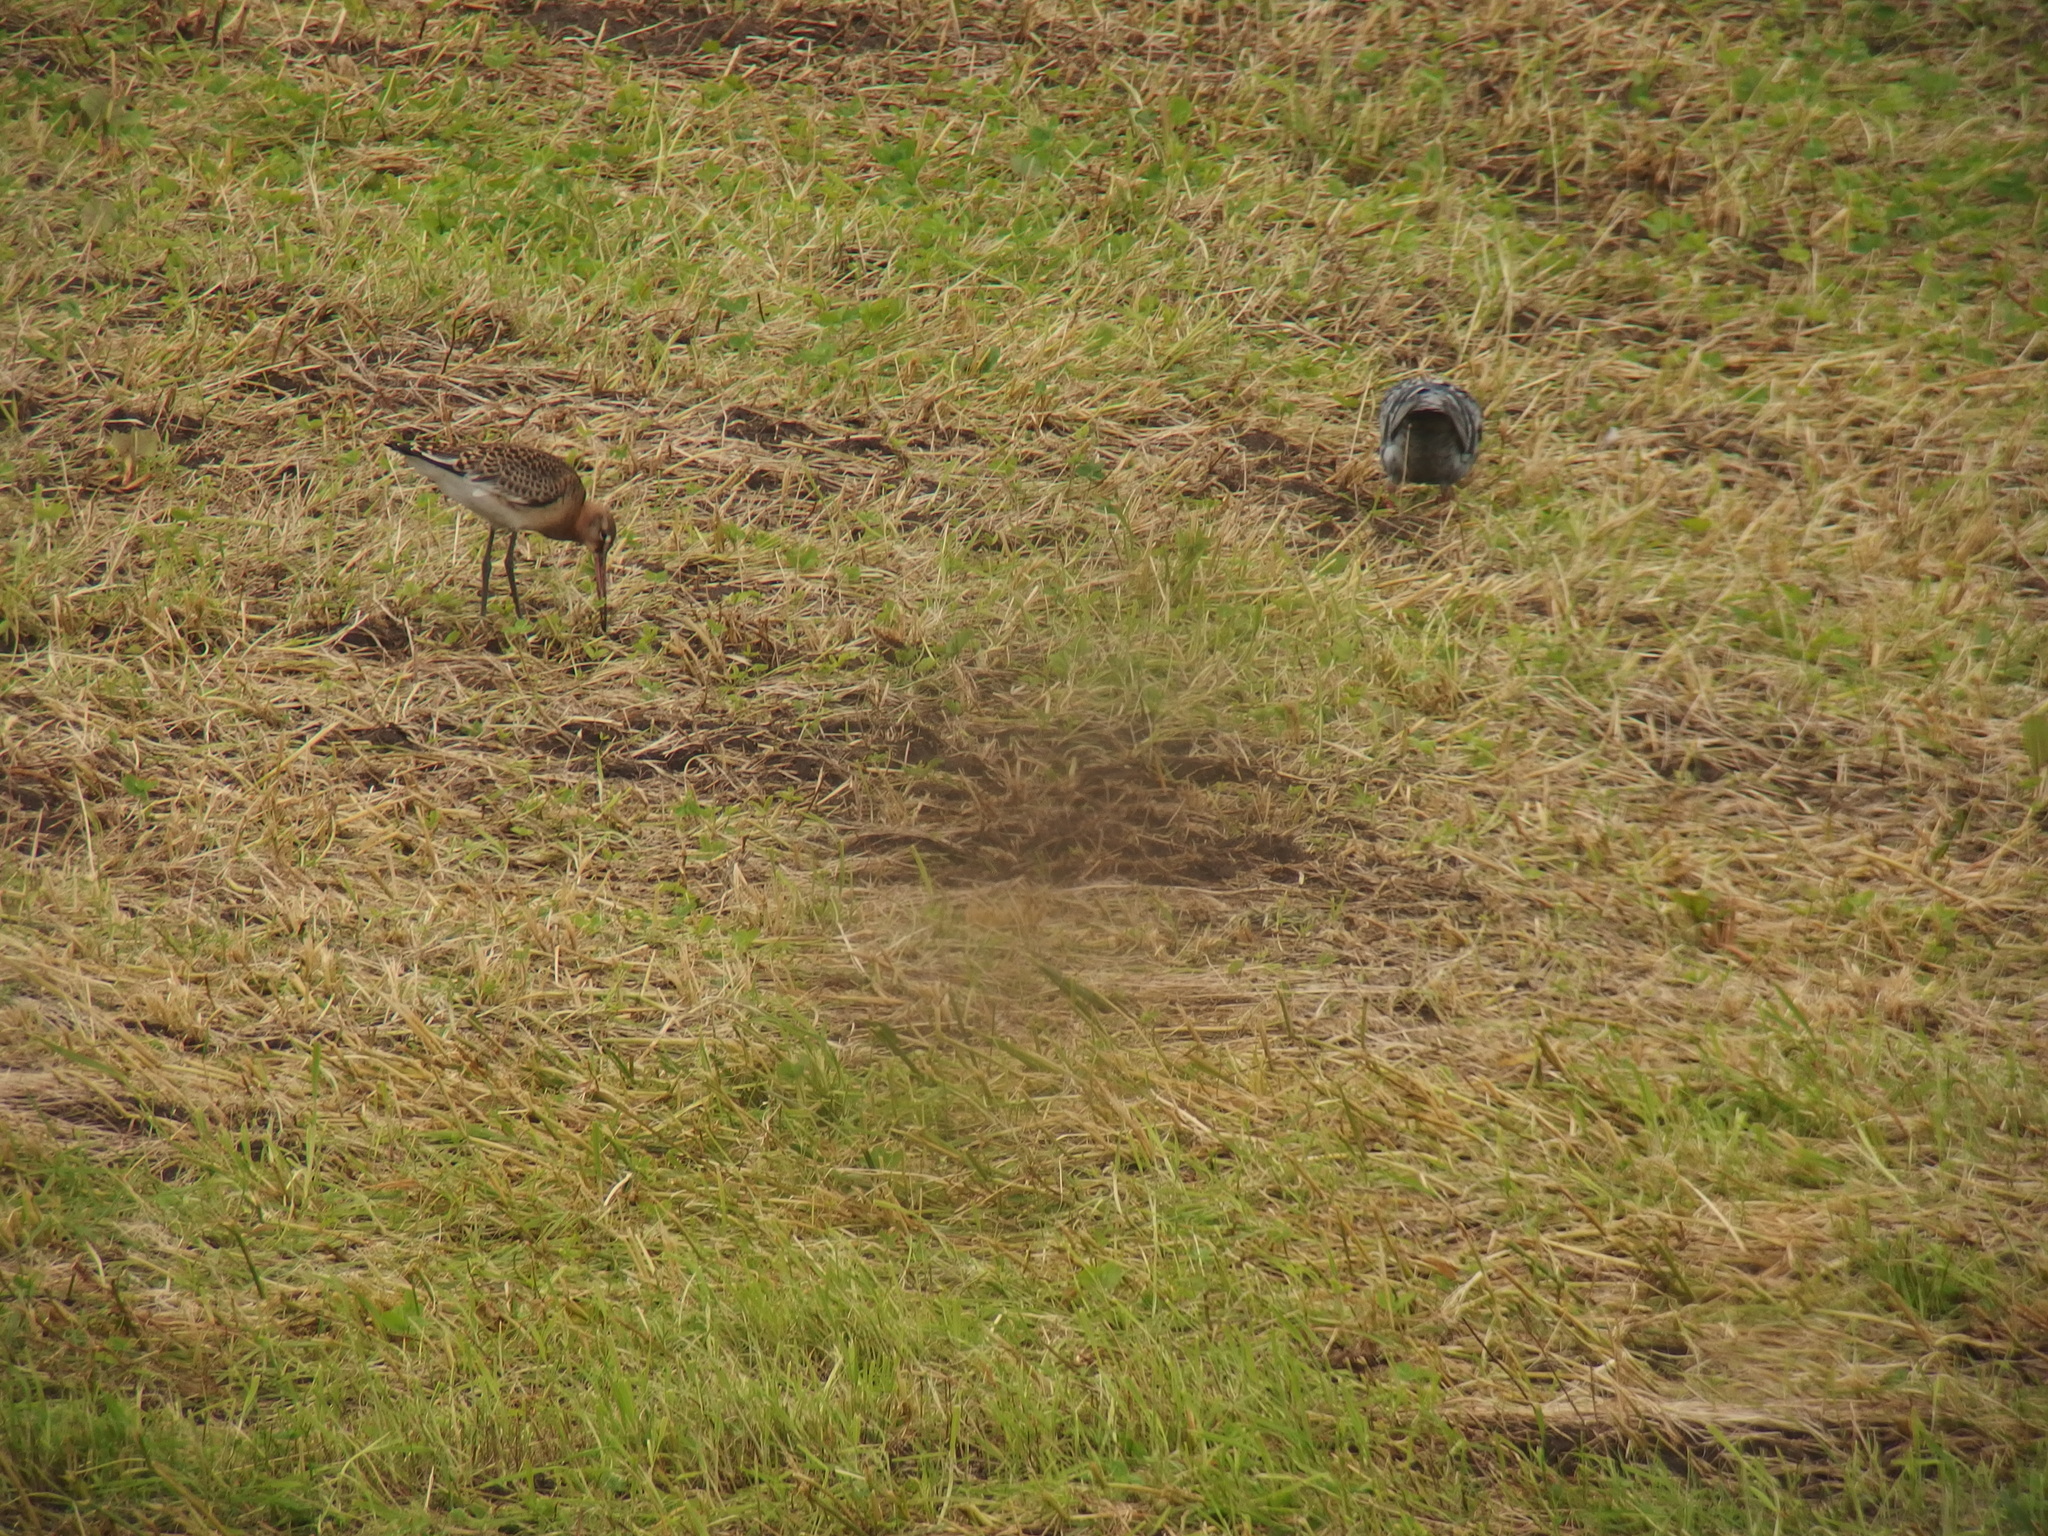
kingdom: Animalia
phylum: Chordata
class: Aves
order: Charadriiformes
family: Scolopacidae
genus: Limosa
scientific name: Limosa limosa
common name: Black-tailed godwit
